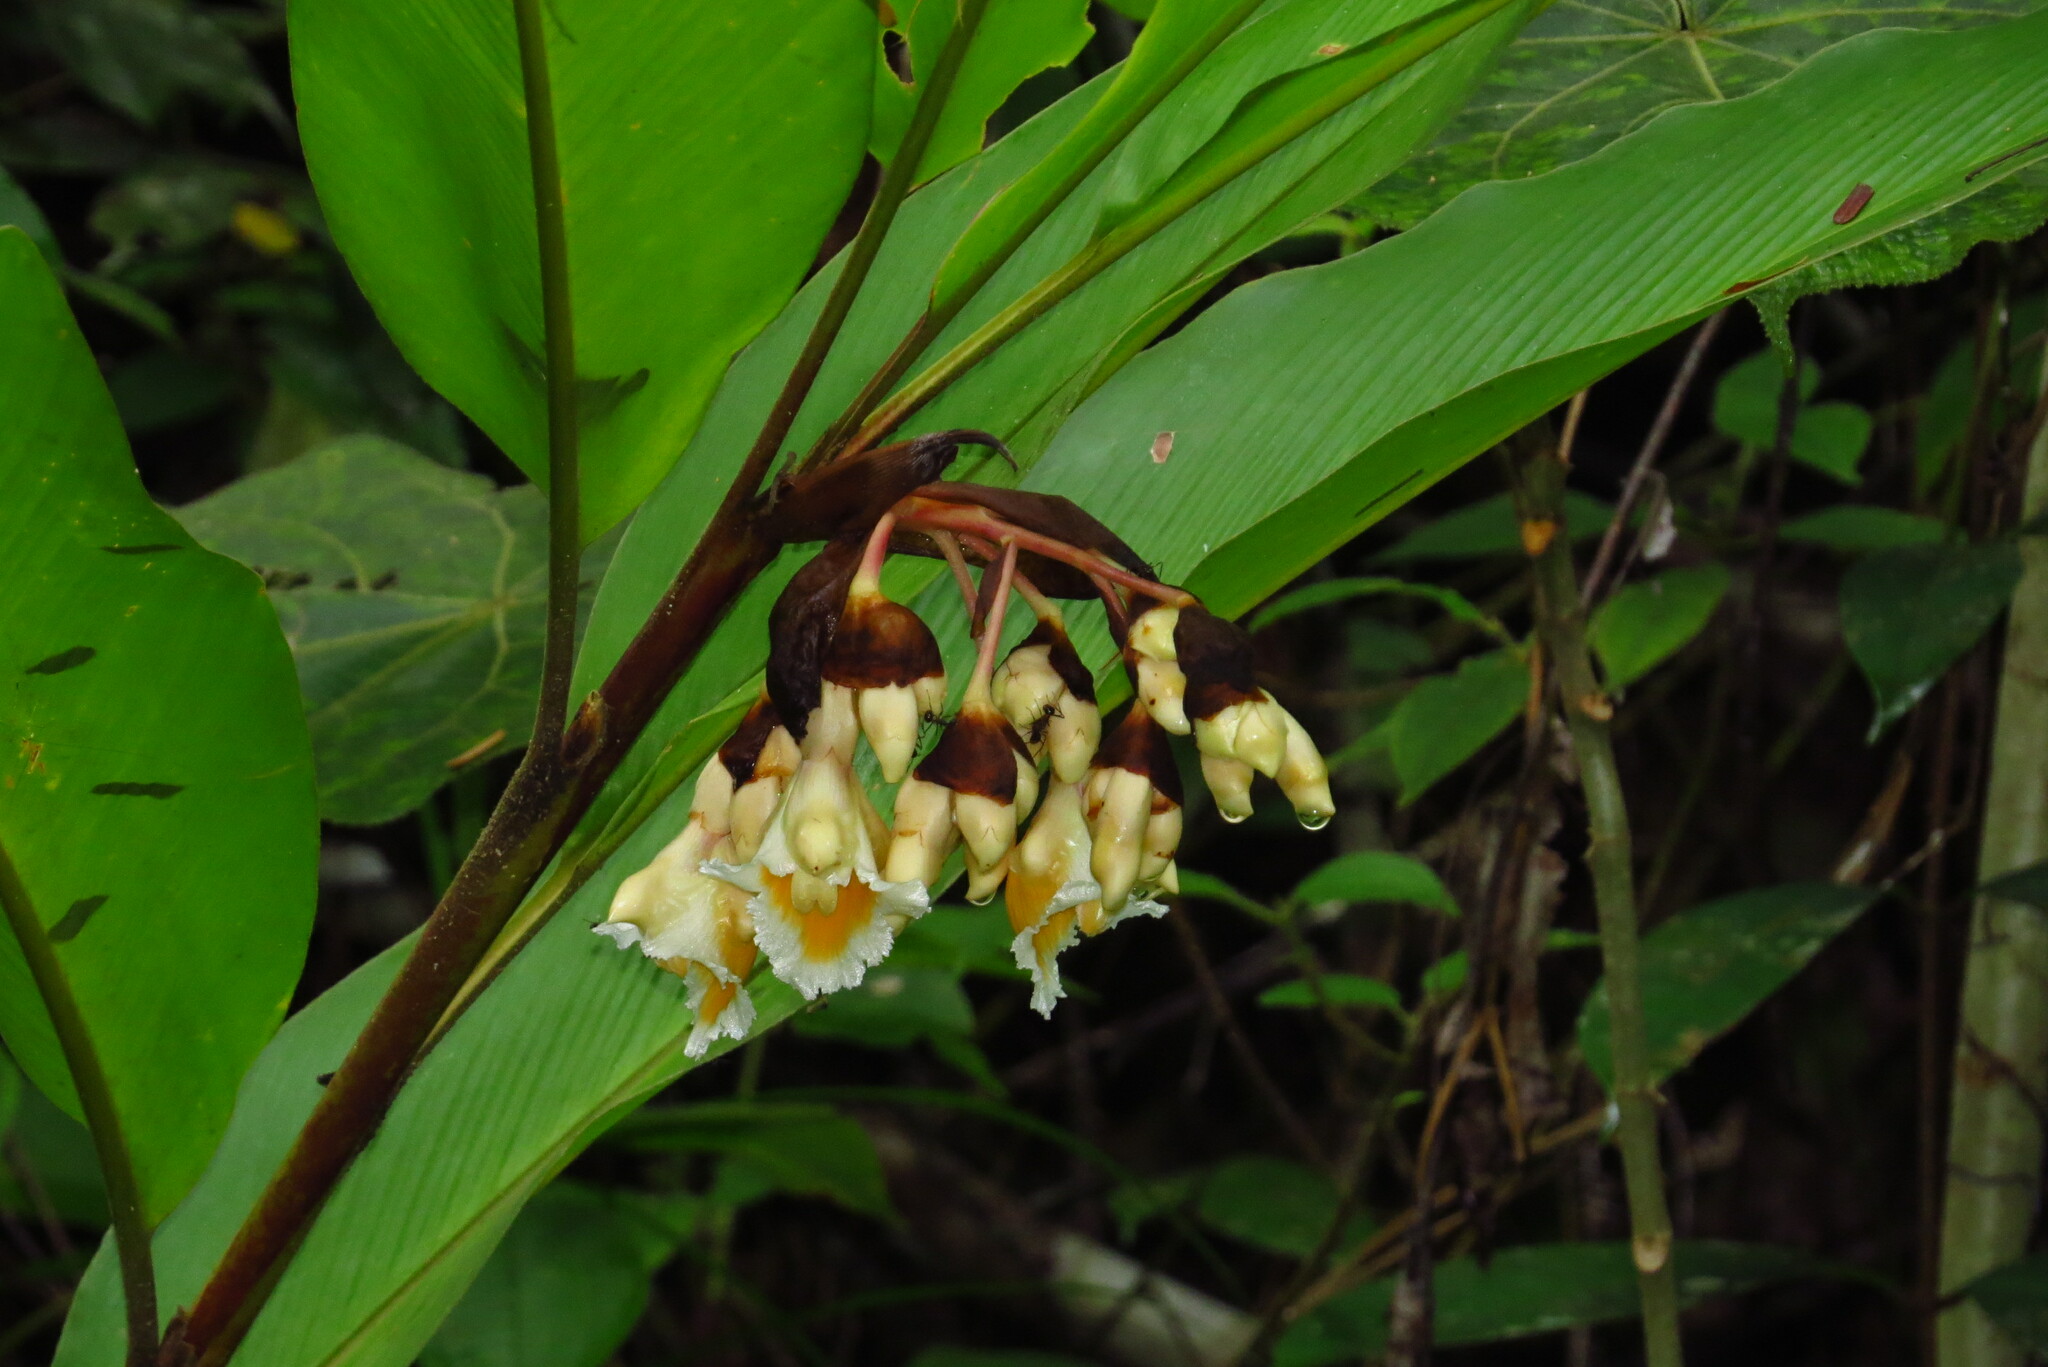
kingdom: Plantae
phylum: Tracheophyta
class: Liliopsida
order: Zingiberales
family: Zingiberaceae
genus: Alpinia
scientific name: Alpinia javanica
